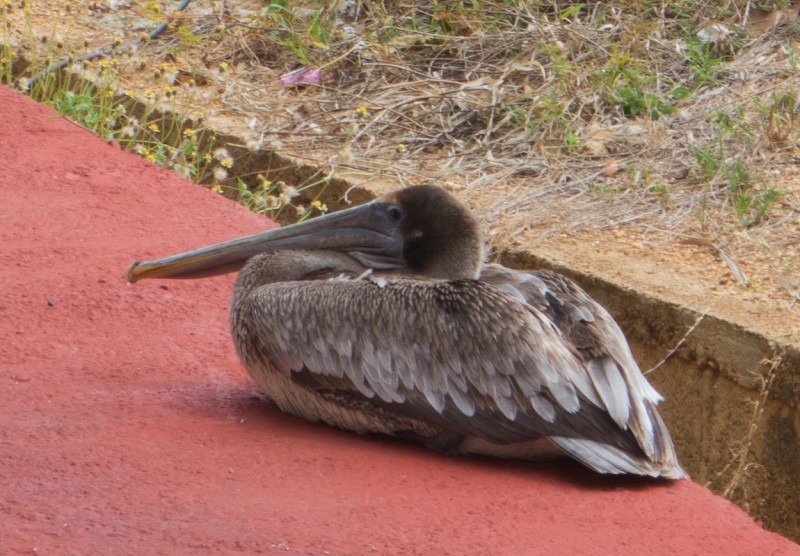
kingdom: Animalia
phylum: Chordata
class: Aves
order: Pelecaniformes
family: Pelecanidae
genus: Pelecanus
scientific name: Pelecanus occidentalis
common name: Brown pelican
